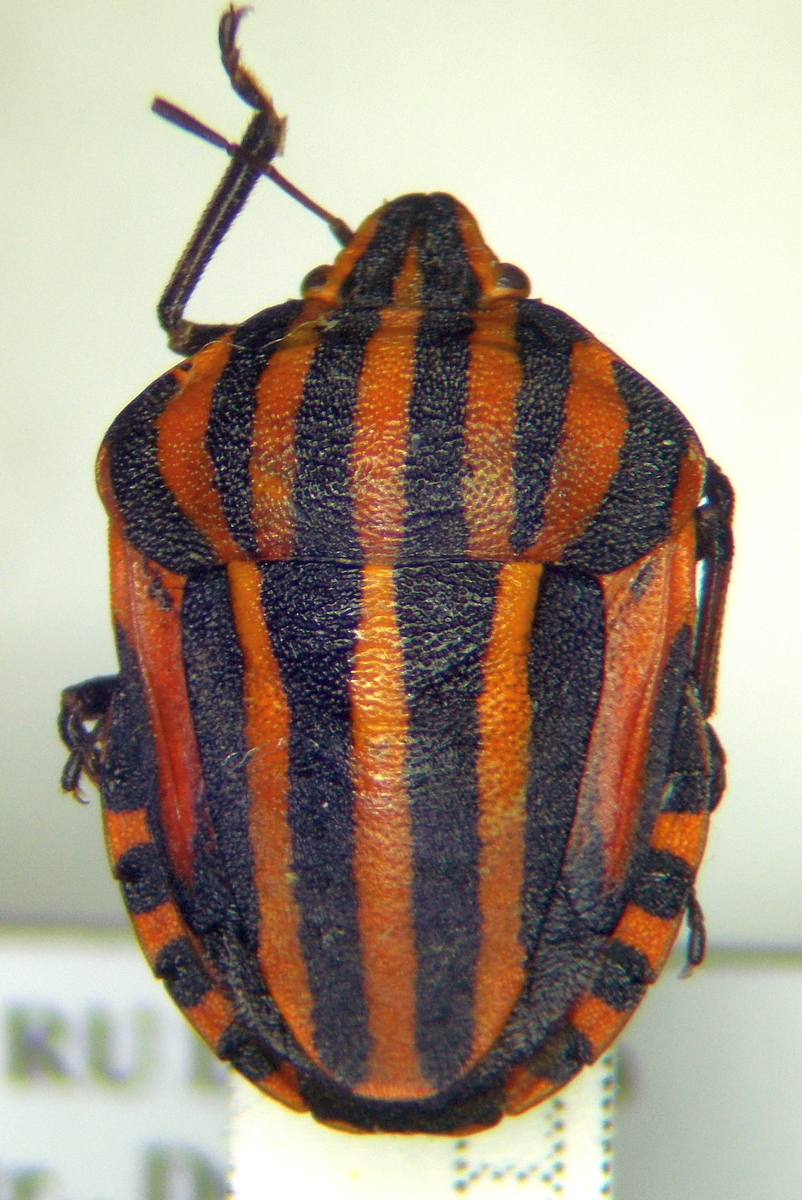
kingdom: Animalia
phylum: Arthropoda
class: Insecta
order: Hemiptera
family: Pentatomidae
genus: Graphosoma
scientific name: Graphosoma italicum
